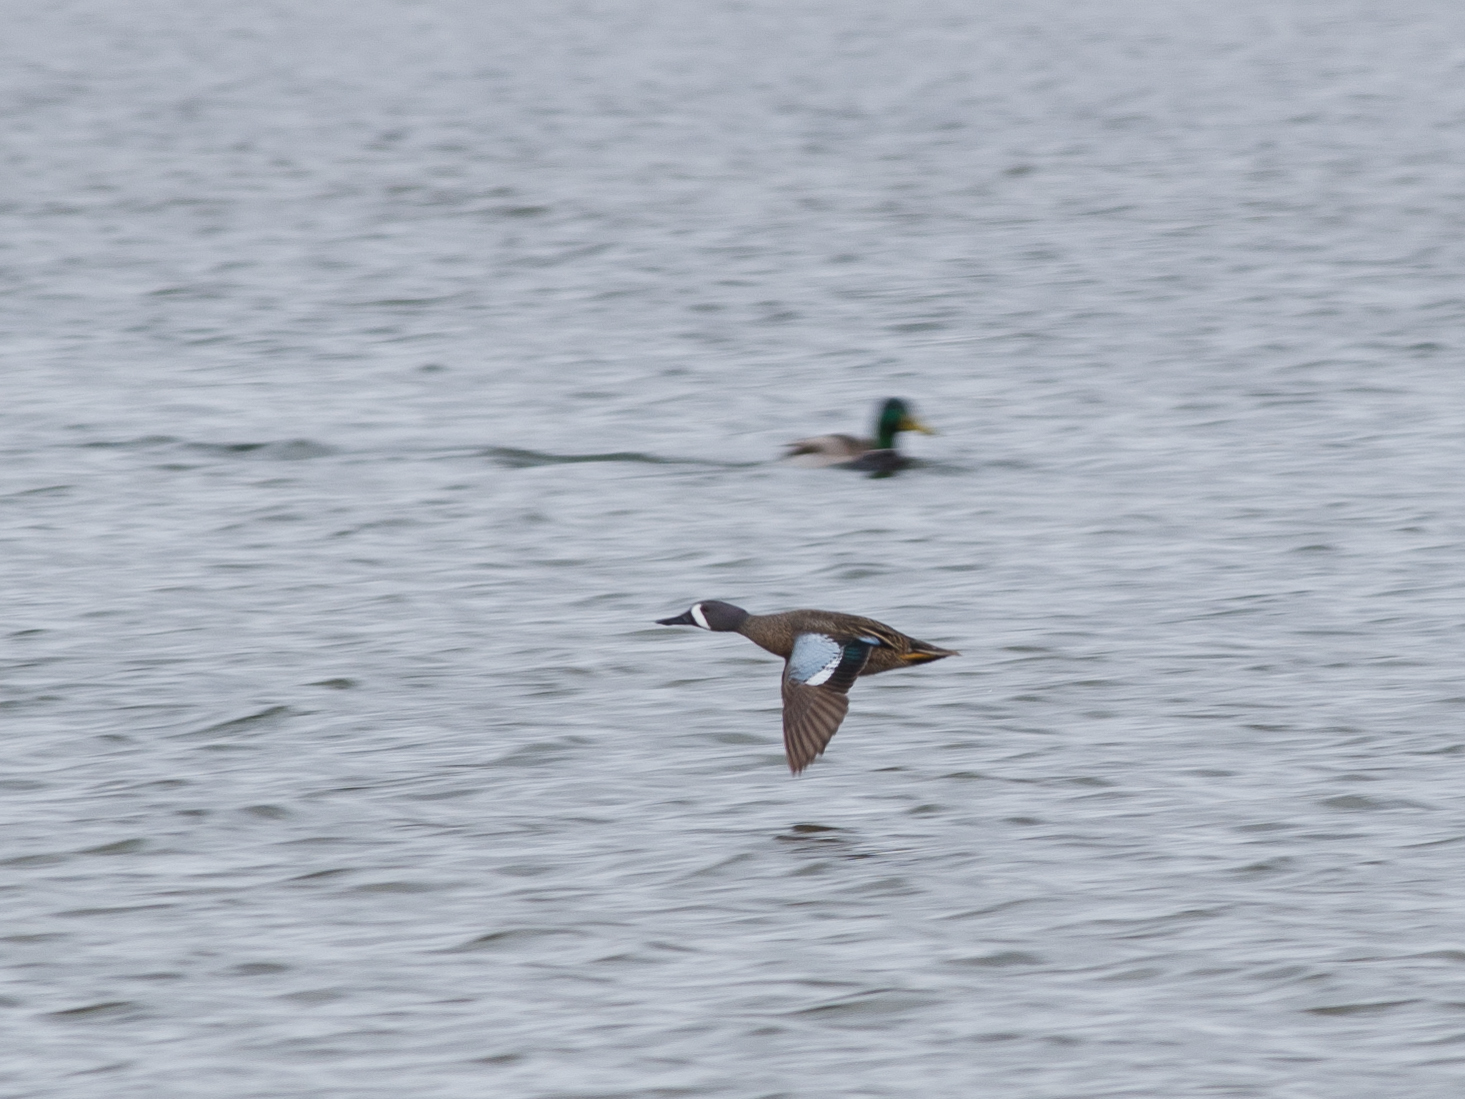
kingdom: Animalia
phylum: Chordata
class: Aves
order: Anseriformes
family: Anatidae
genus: Spatula
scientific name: Spatula discors
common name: Blue-winged teal
